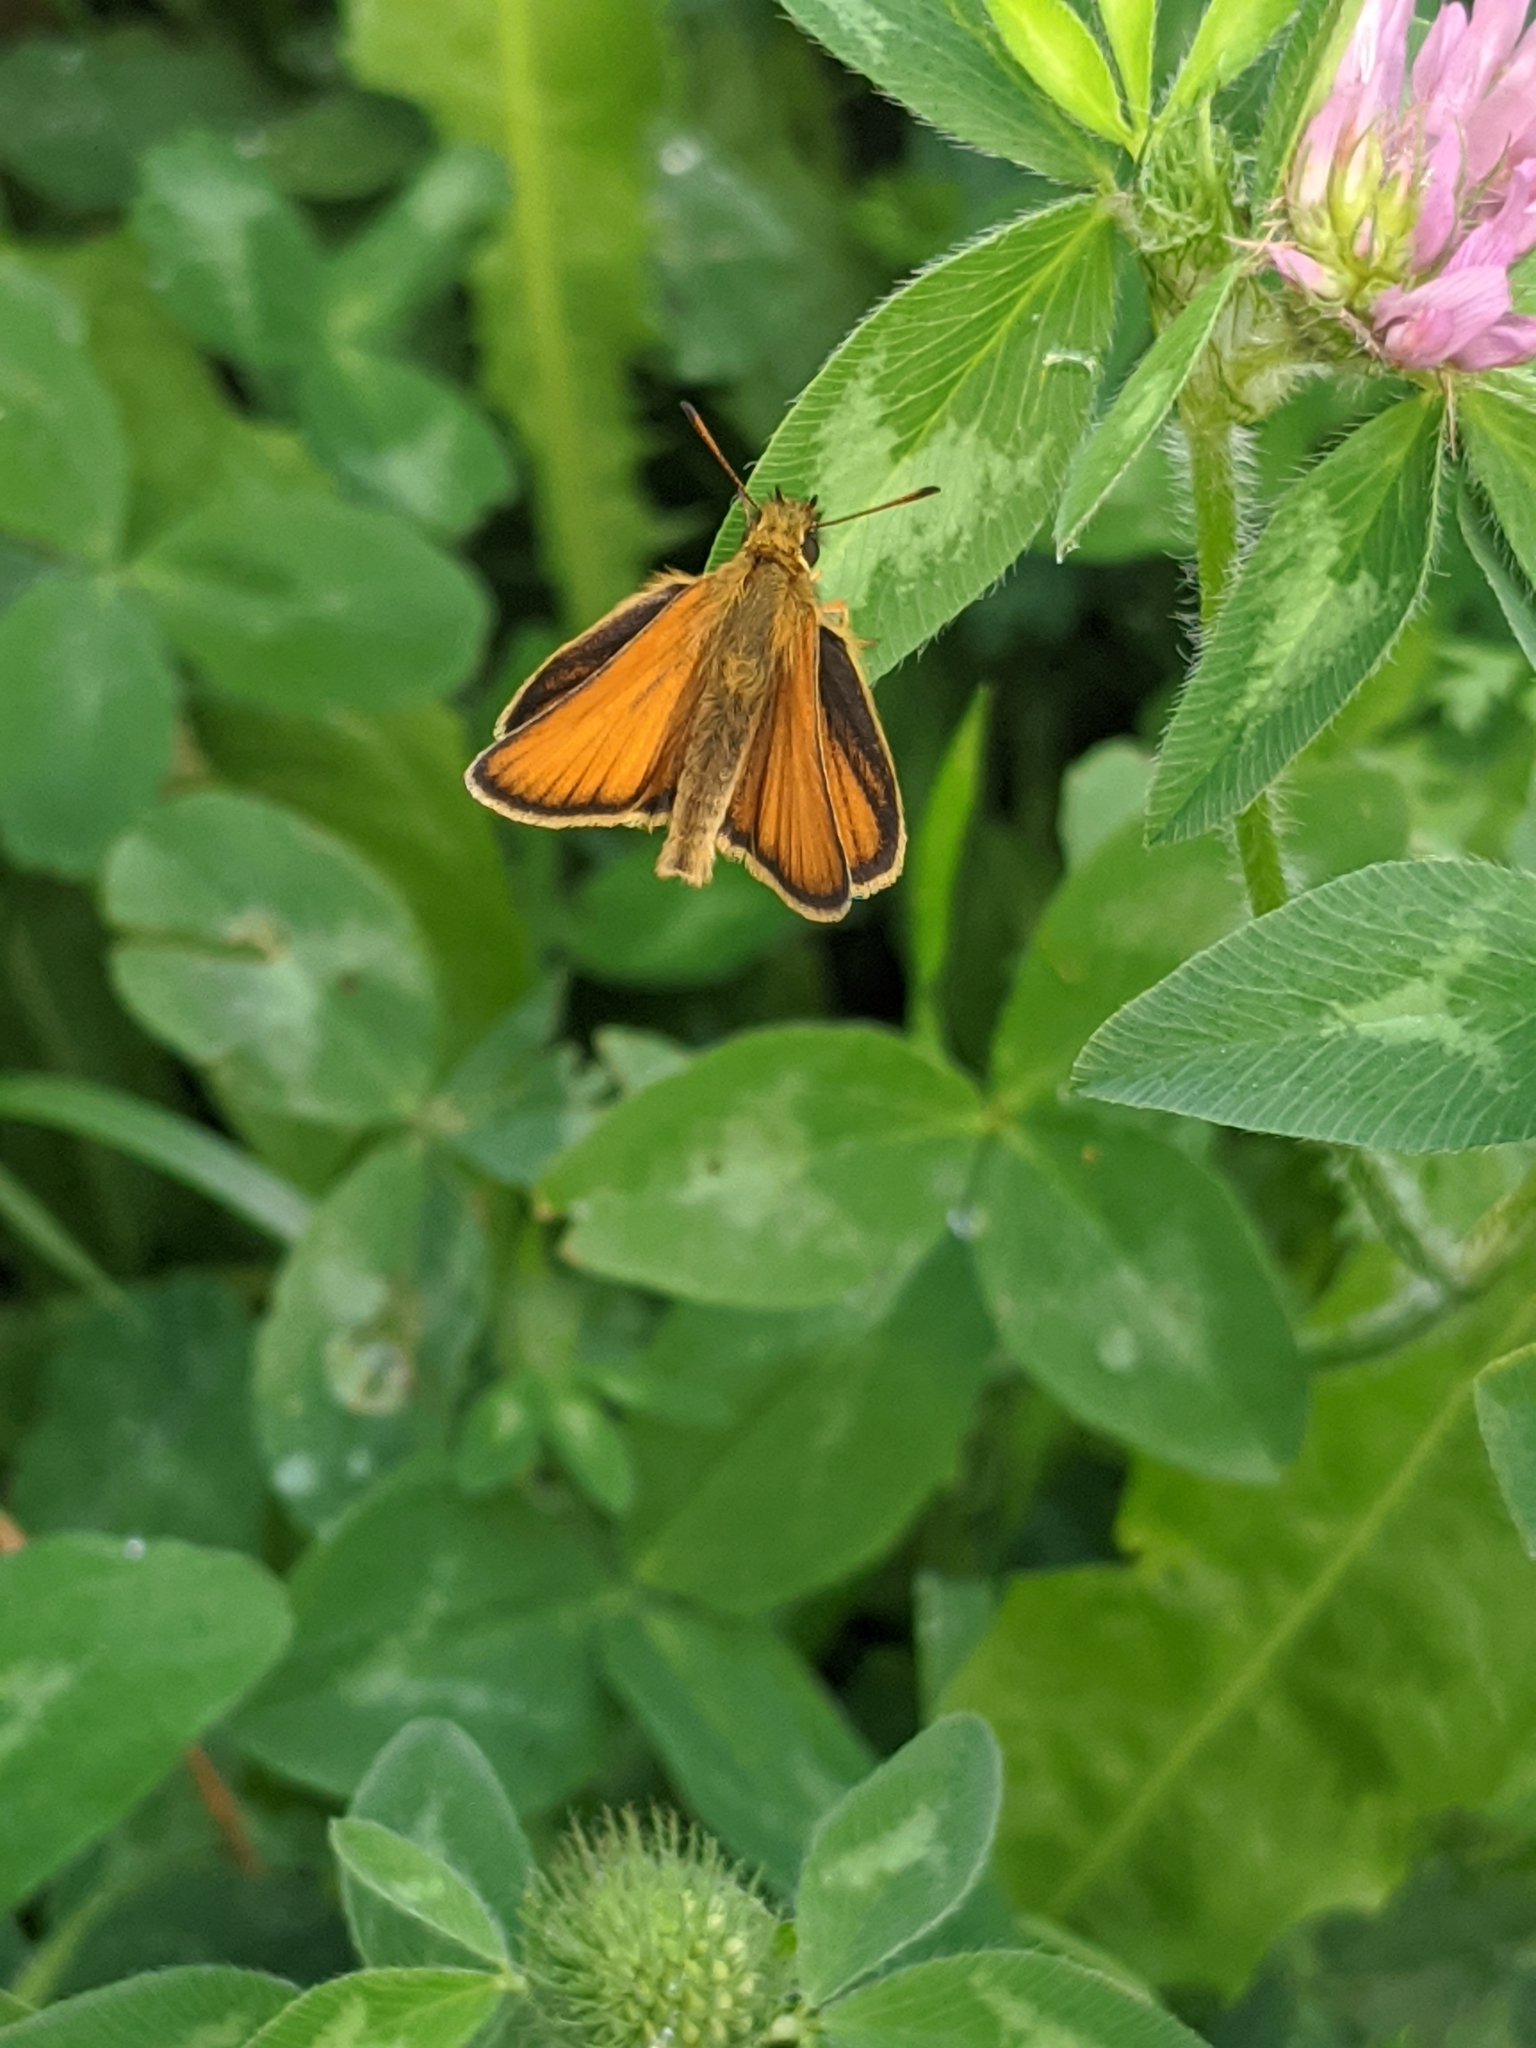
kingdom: Animalia
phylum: Arthropoda
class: Insecta
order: Lepidoptera
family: Hesperiidae
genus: Thymelicus
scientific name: Thymelicus lineola
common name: Essex skipper
